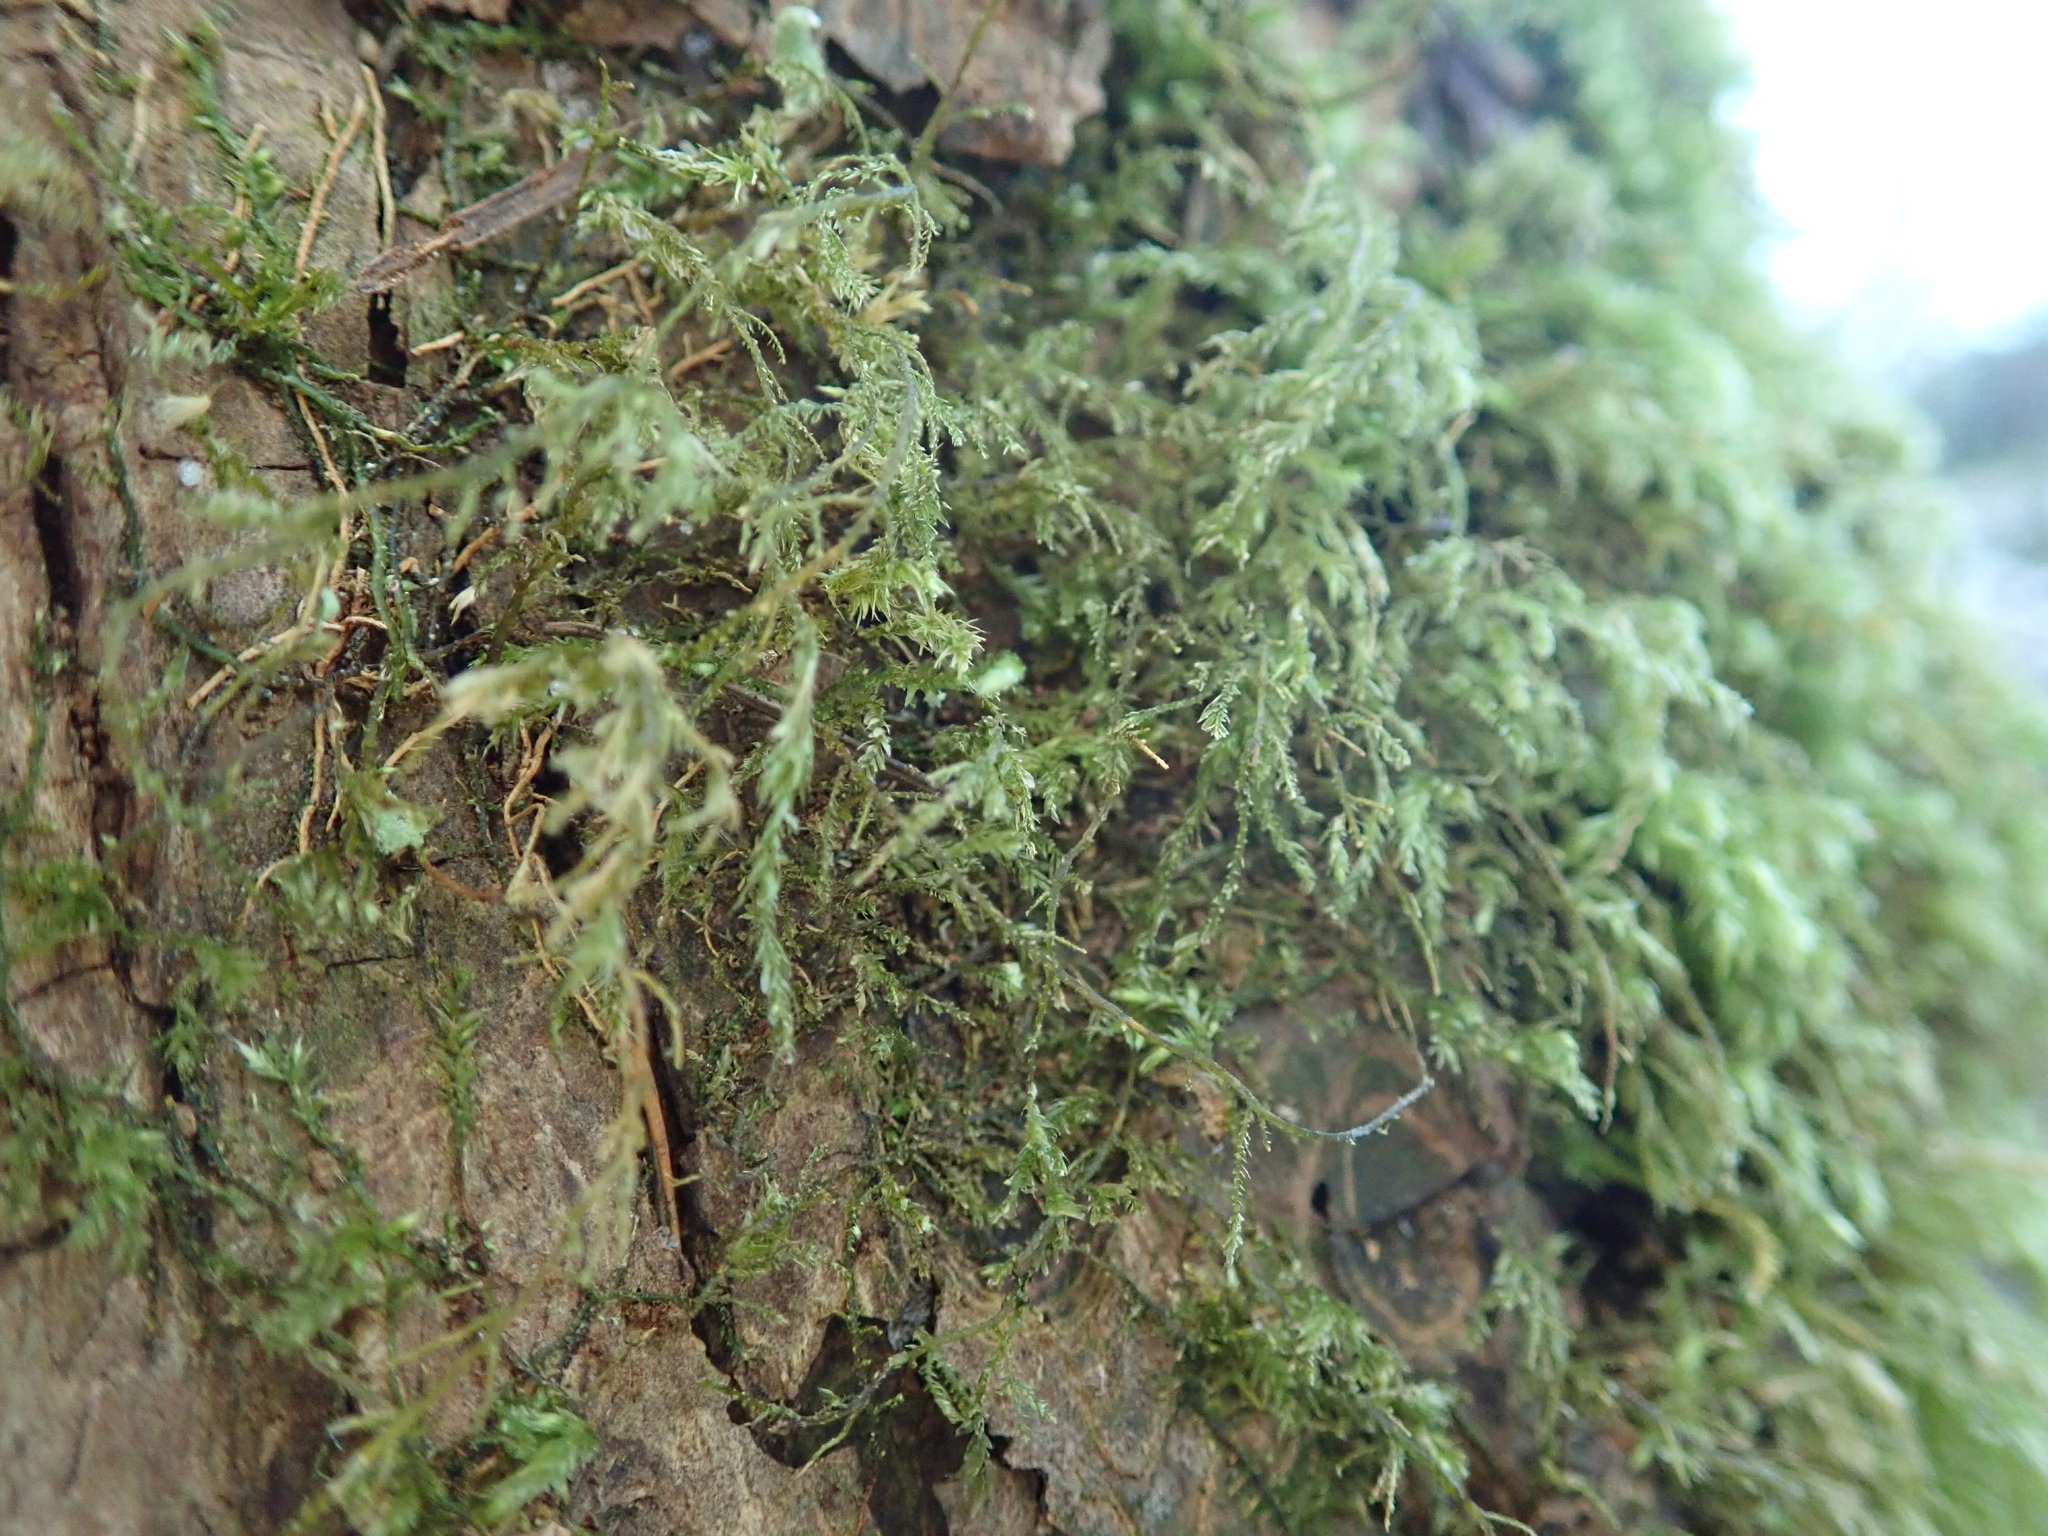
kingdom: Plantae
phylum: Bryophyta
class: Bryopsida
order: Hypnales
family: Lembophyllaceae
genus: Pseudisothecium
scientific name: Pseudisothecium stoloniferum
